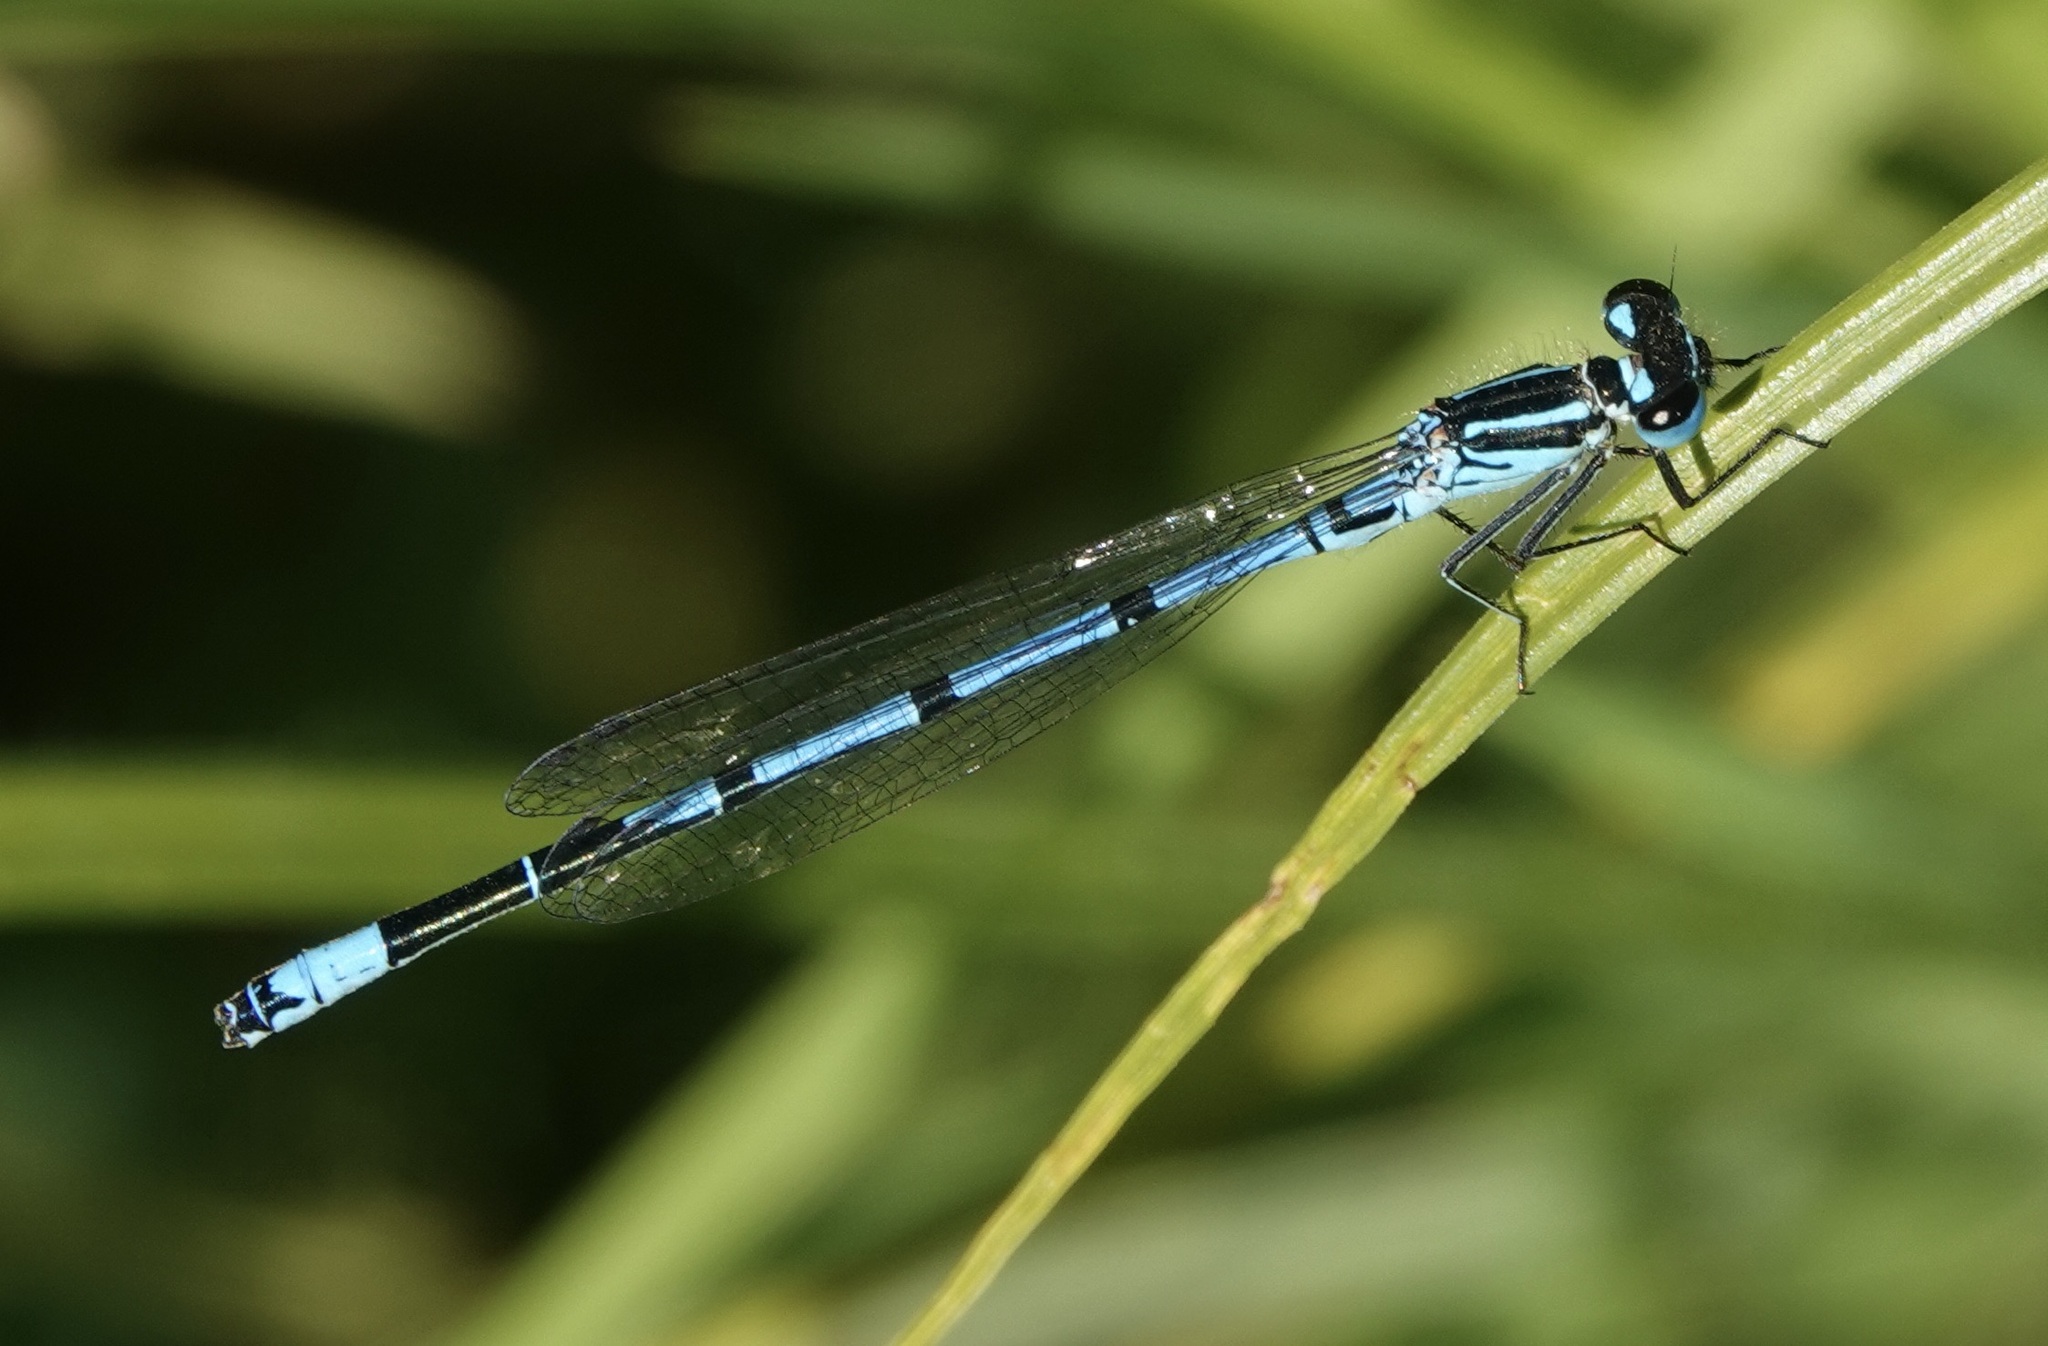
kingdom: Animalia
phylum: Arthropoda
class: Insecta
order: Odonata
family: Coenagrionidae
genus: Coenagrion
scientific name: Coenagrion puella
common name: Azure damselfly
